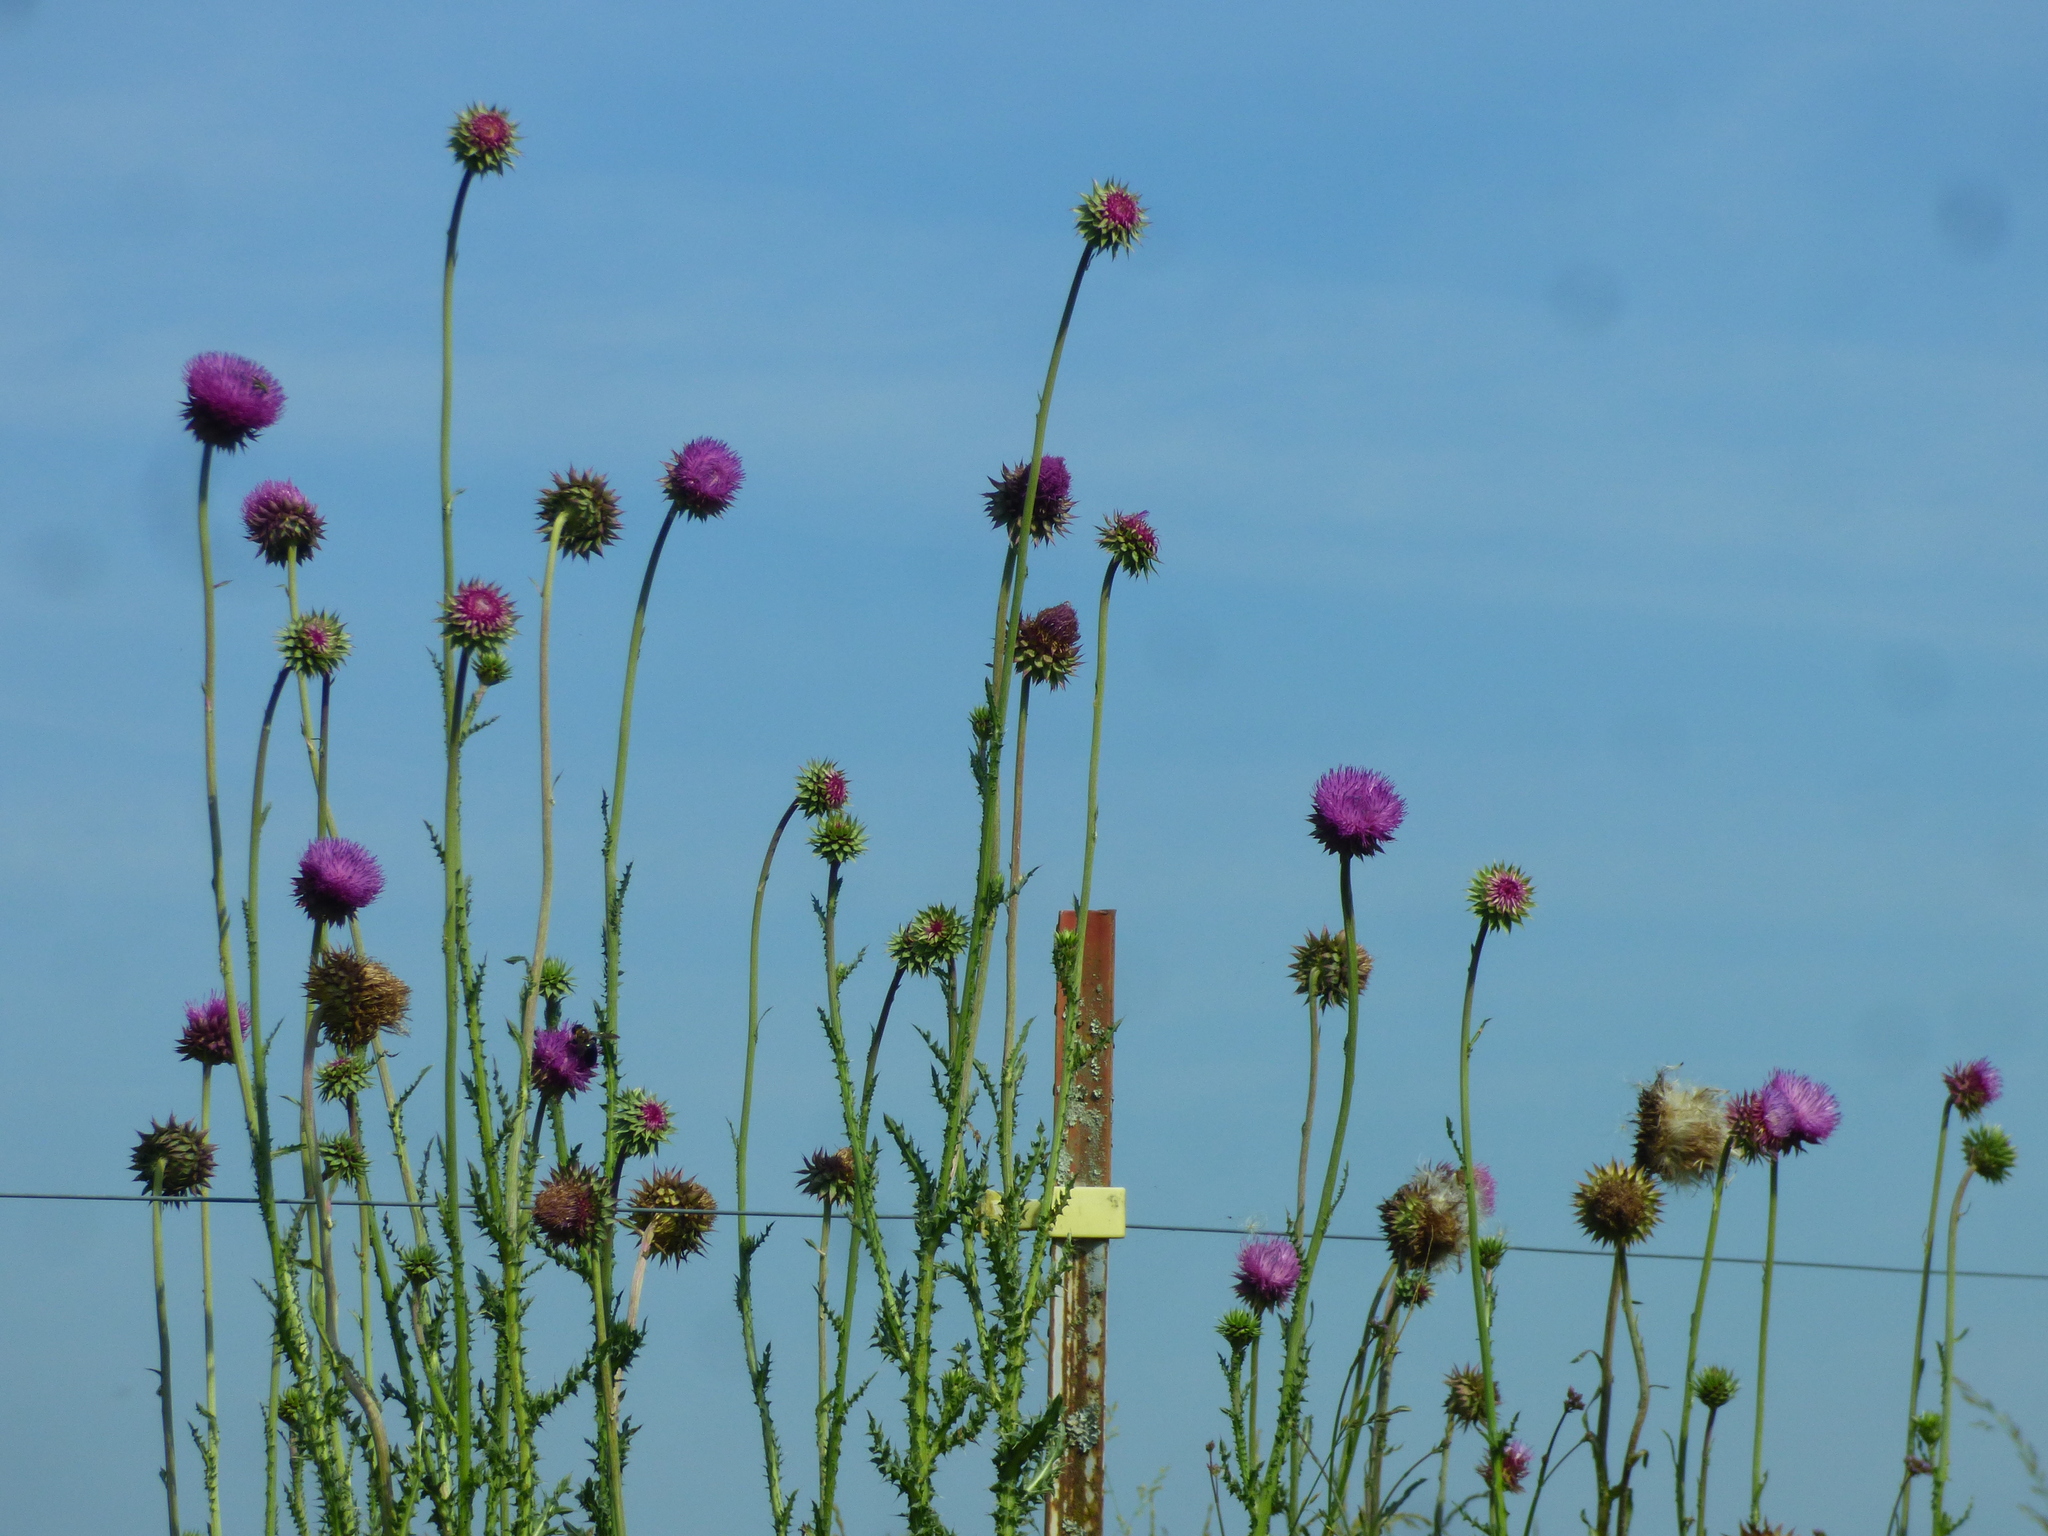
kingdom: Plantae
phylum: Tracheophyta
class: Magnoliopsida
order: Asterales
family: Asteraceae
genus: Carduus
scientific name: Carduus nutans
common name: Musk thistle
